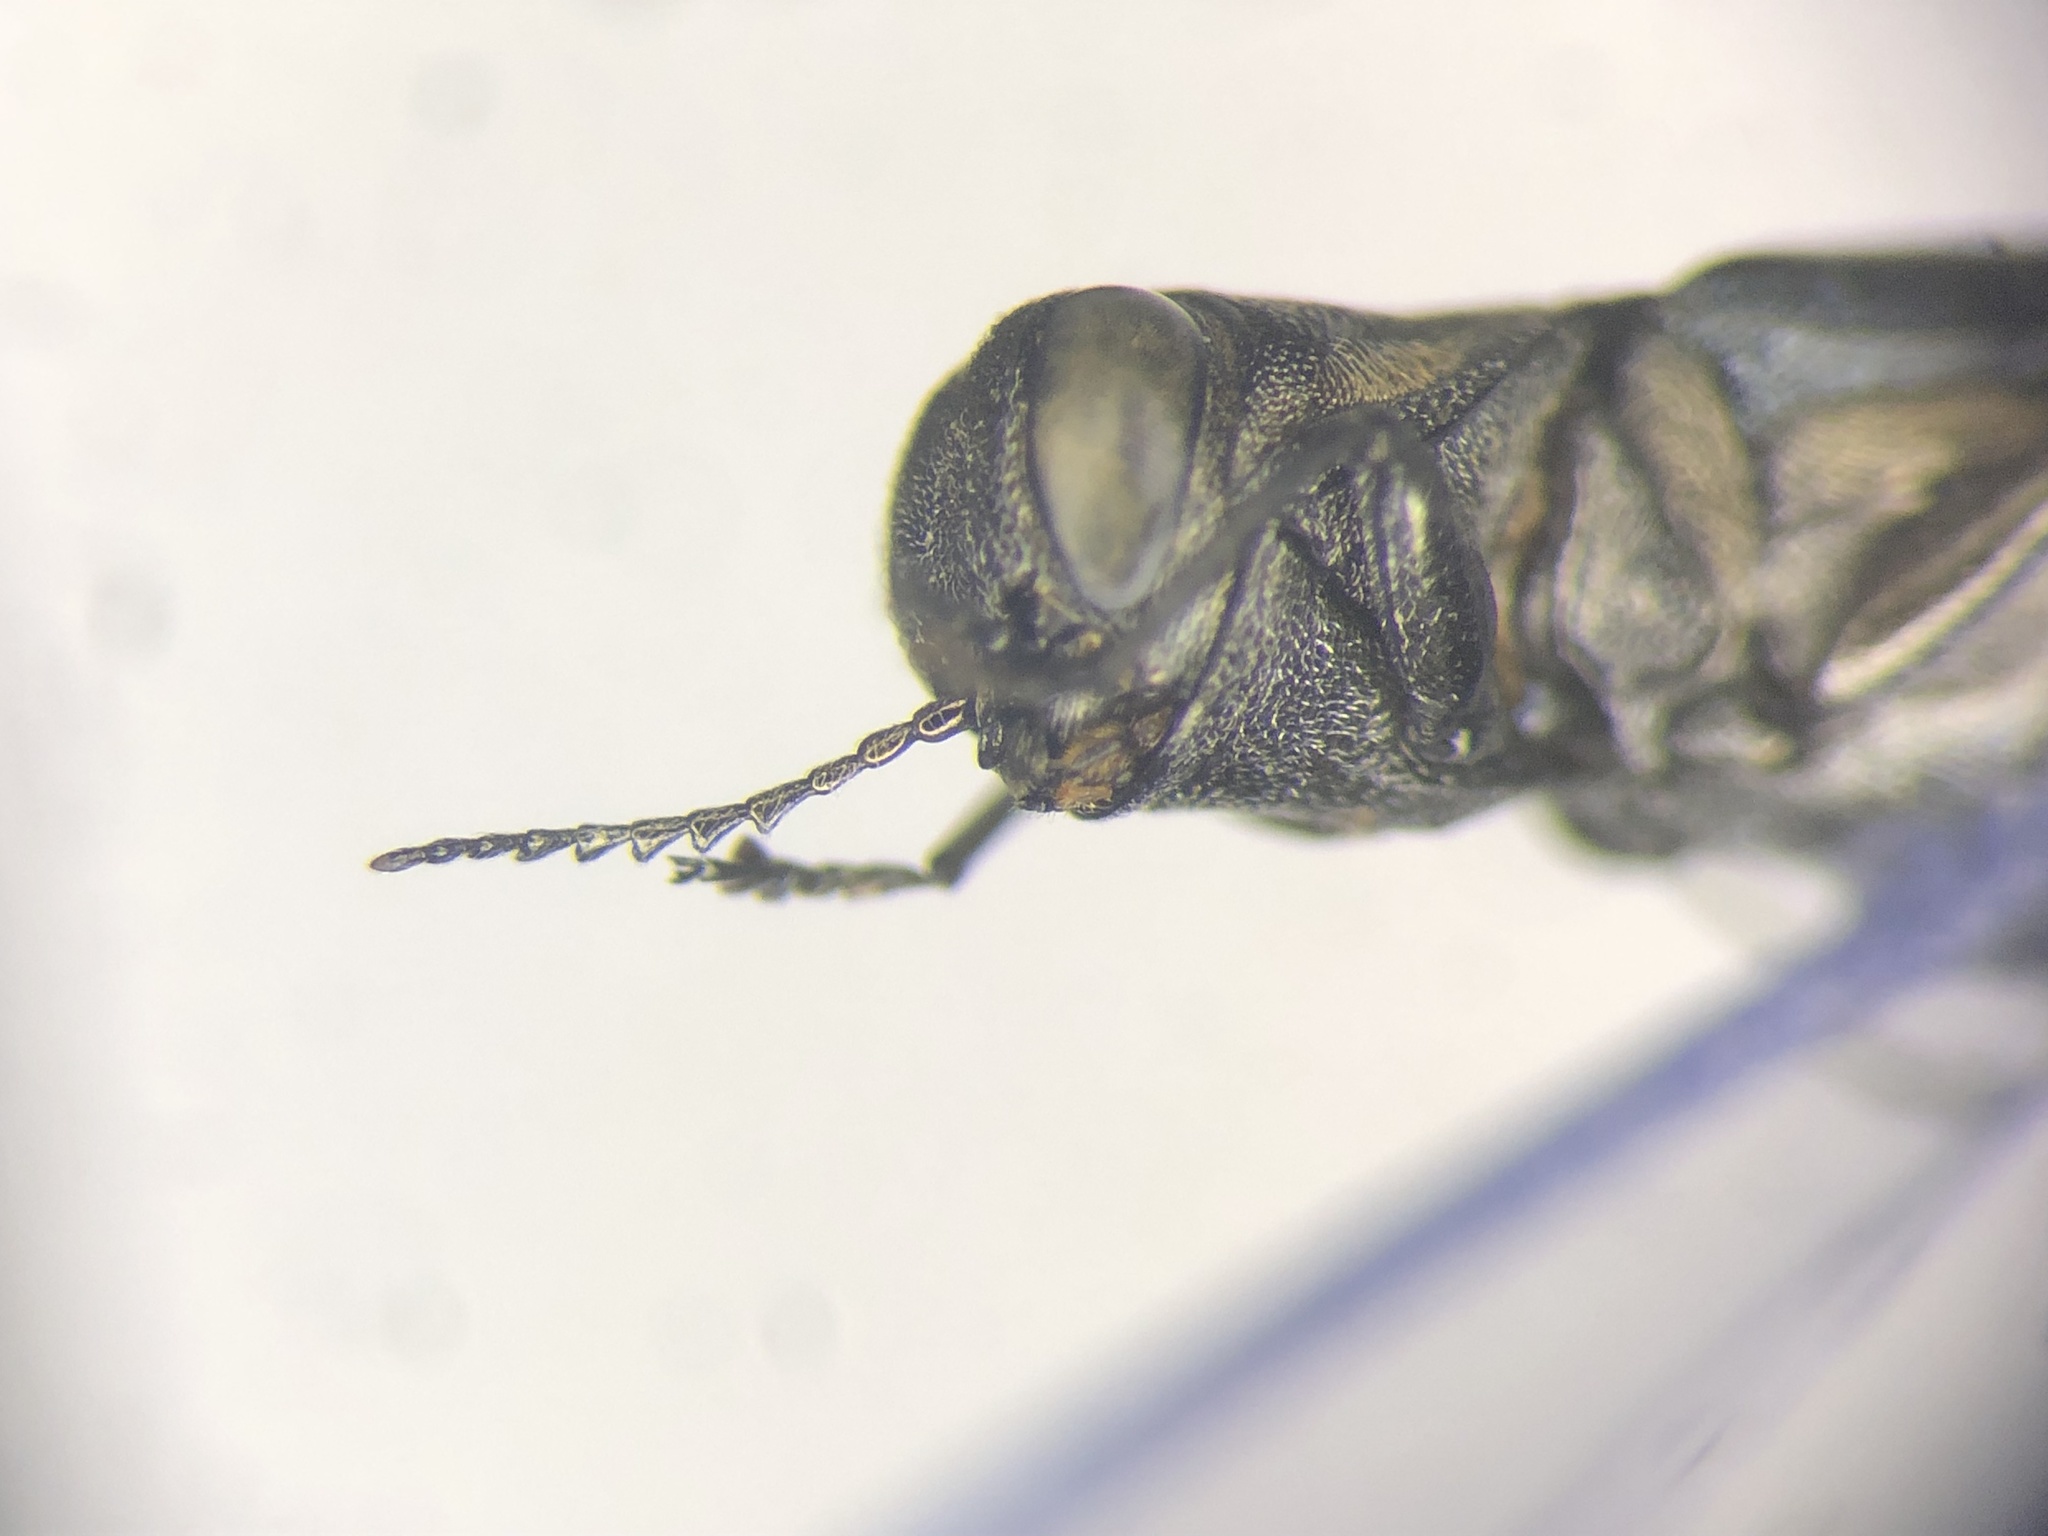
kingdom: Animalia
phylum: Arthropoda
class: Insecta
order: Coleoptera
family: Buprestidae
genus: Agrilus
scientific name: Agrilus bilineatus
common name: Two-lined chestnut borer
